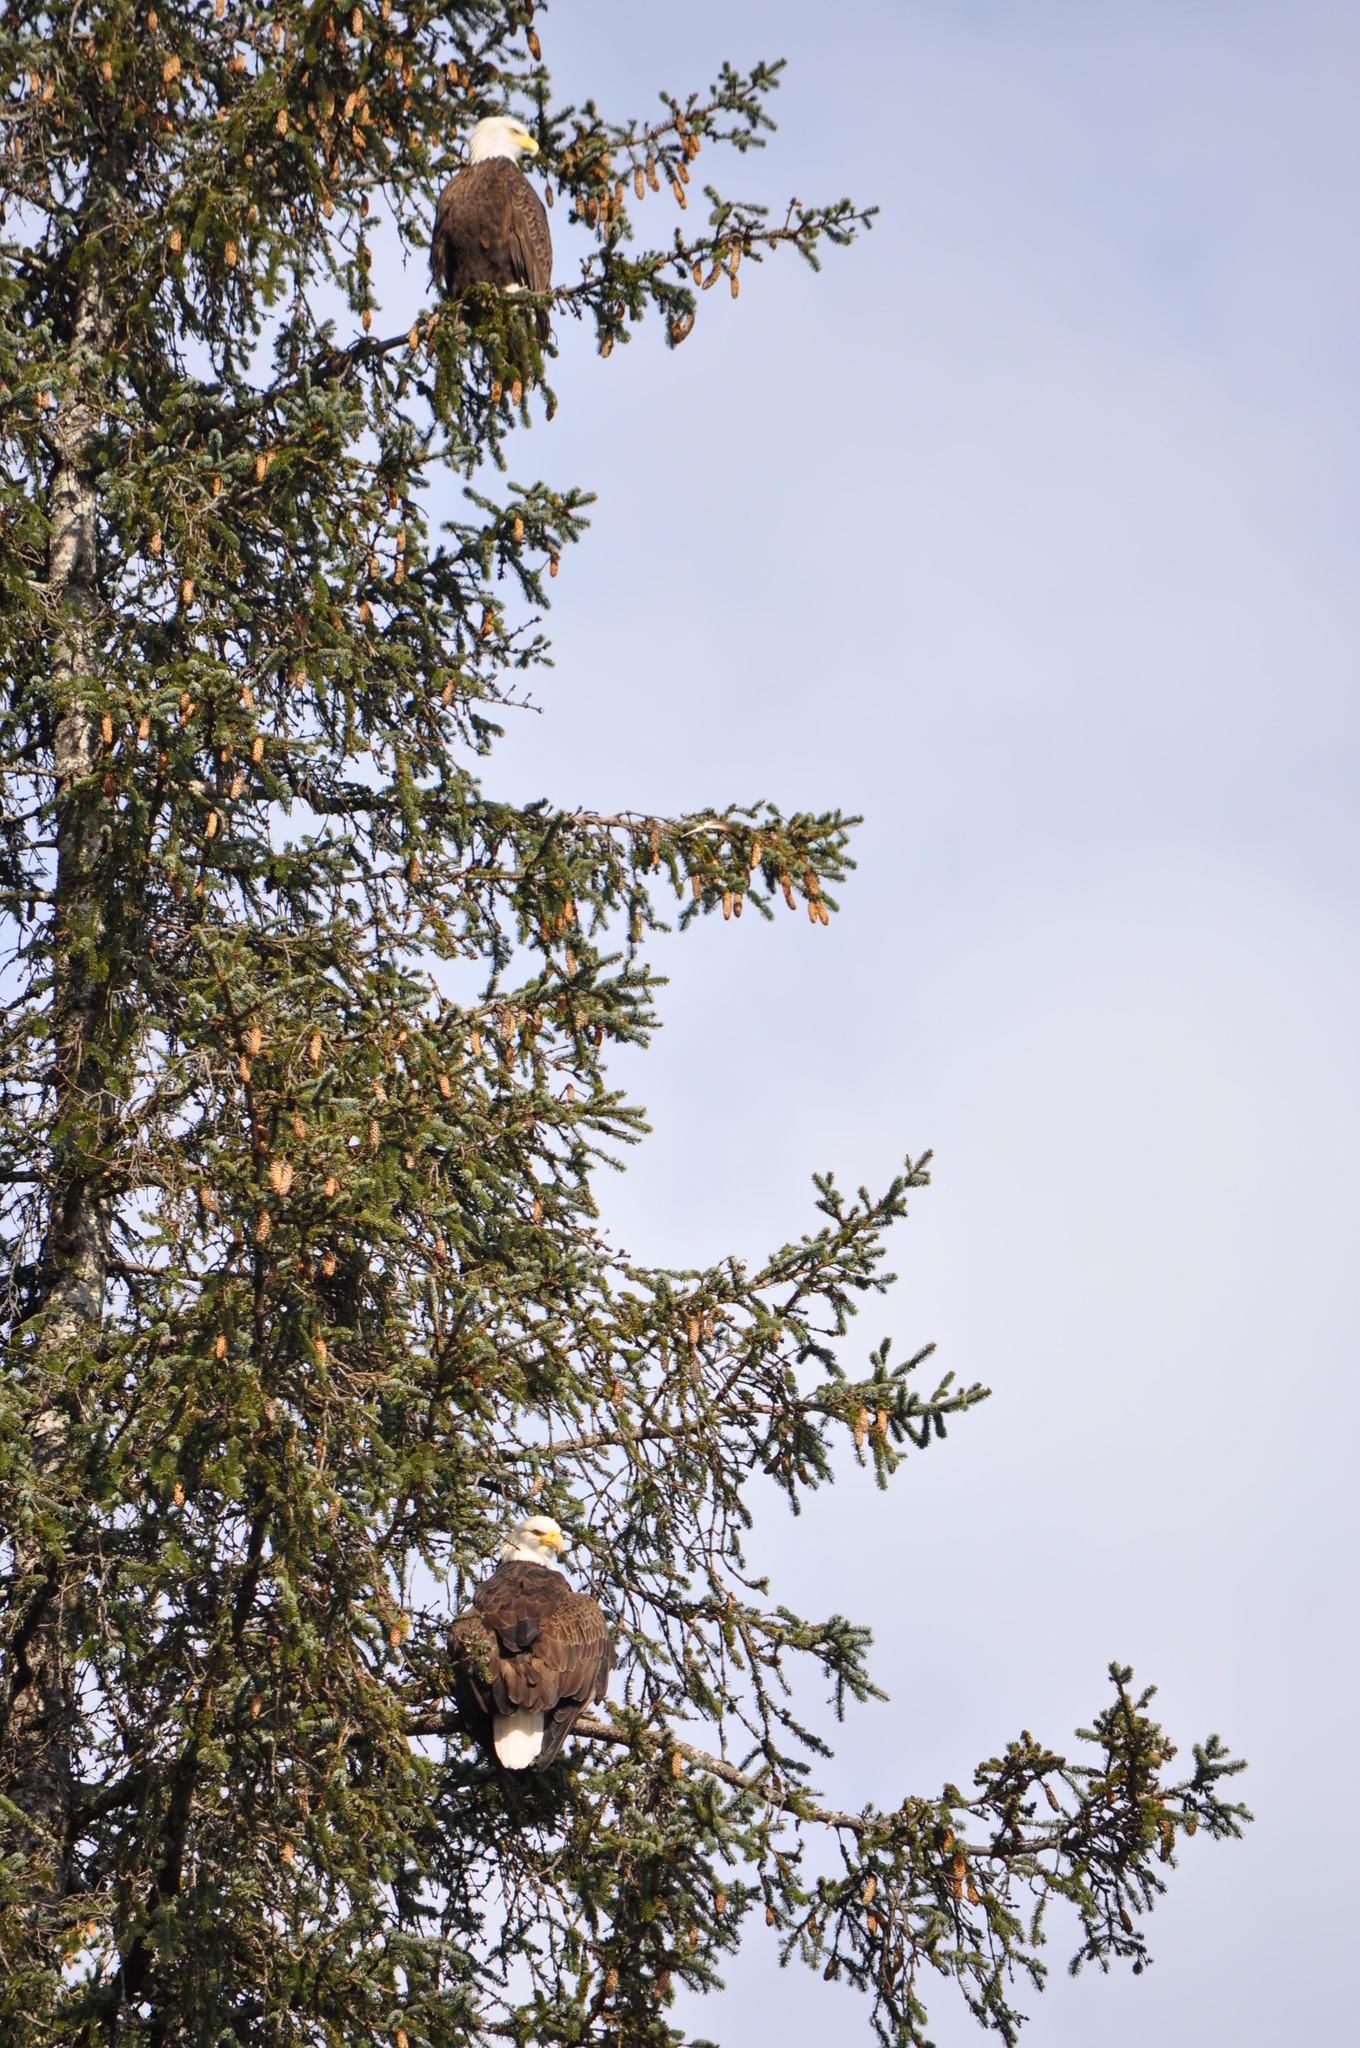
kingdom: Animalia
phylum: Chordata
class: Aves
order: Accipitriformes
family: Accipitridae
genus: Haliaeetus
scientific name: Haliaeetus leucocephalus
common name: Bald eagle
